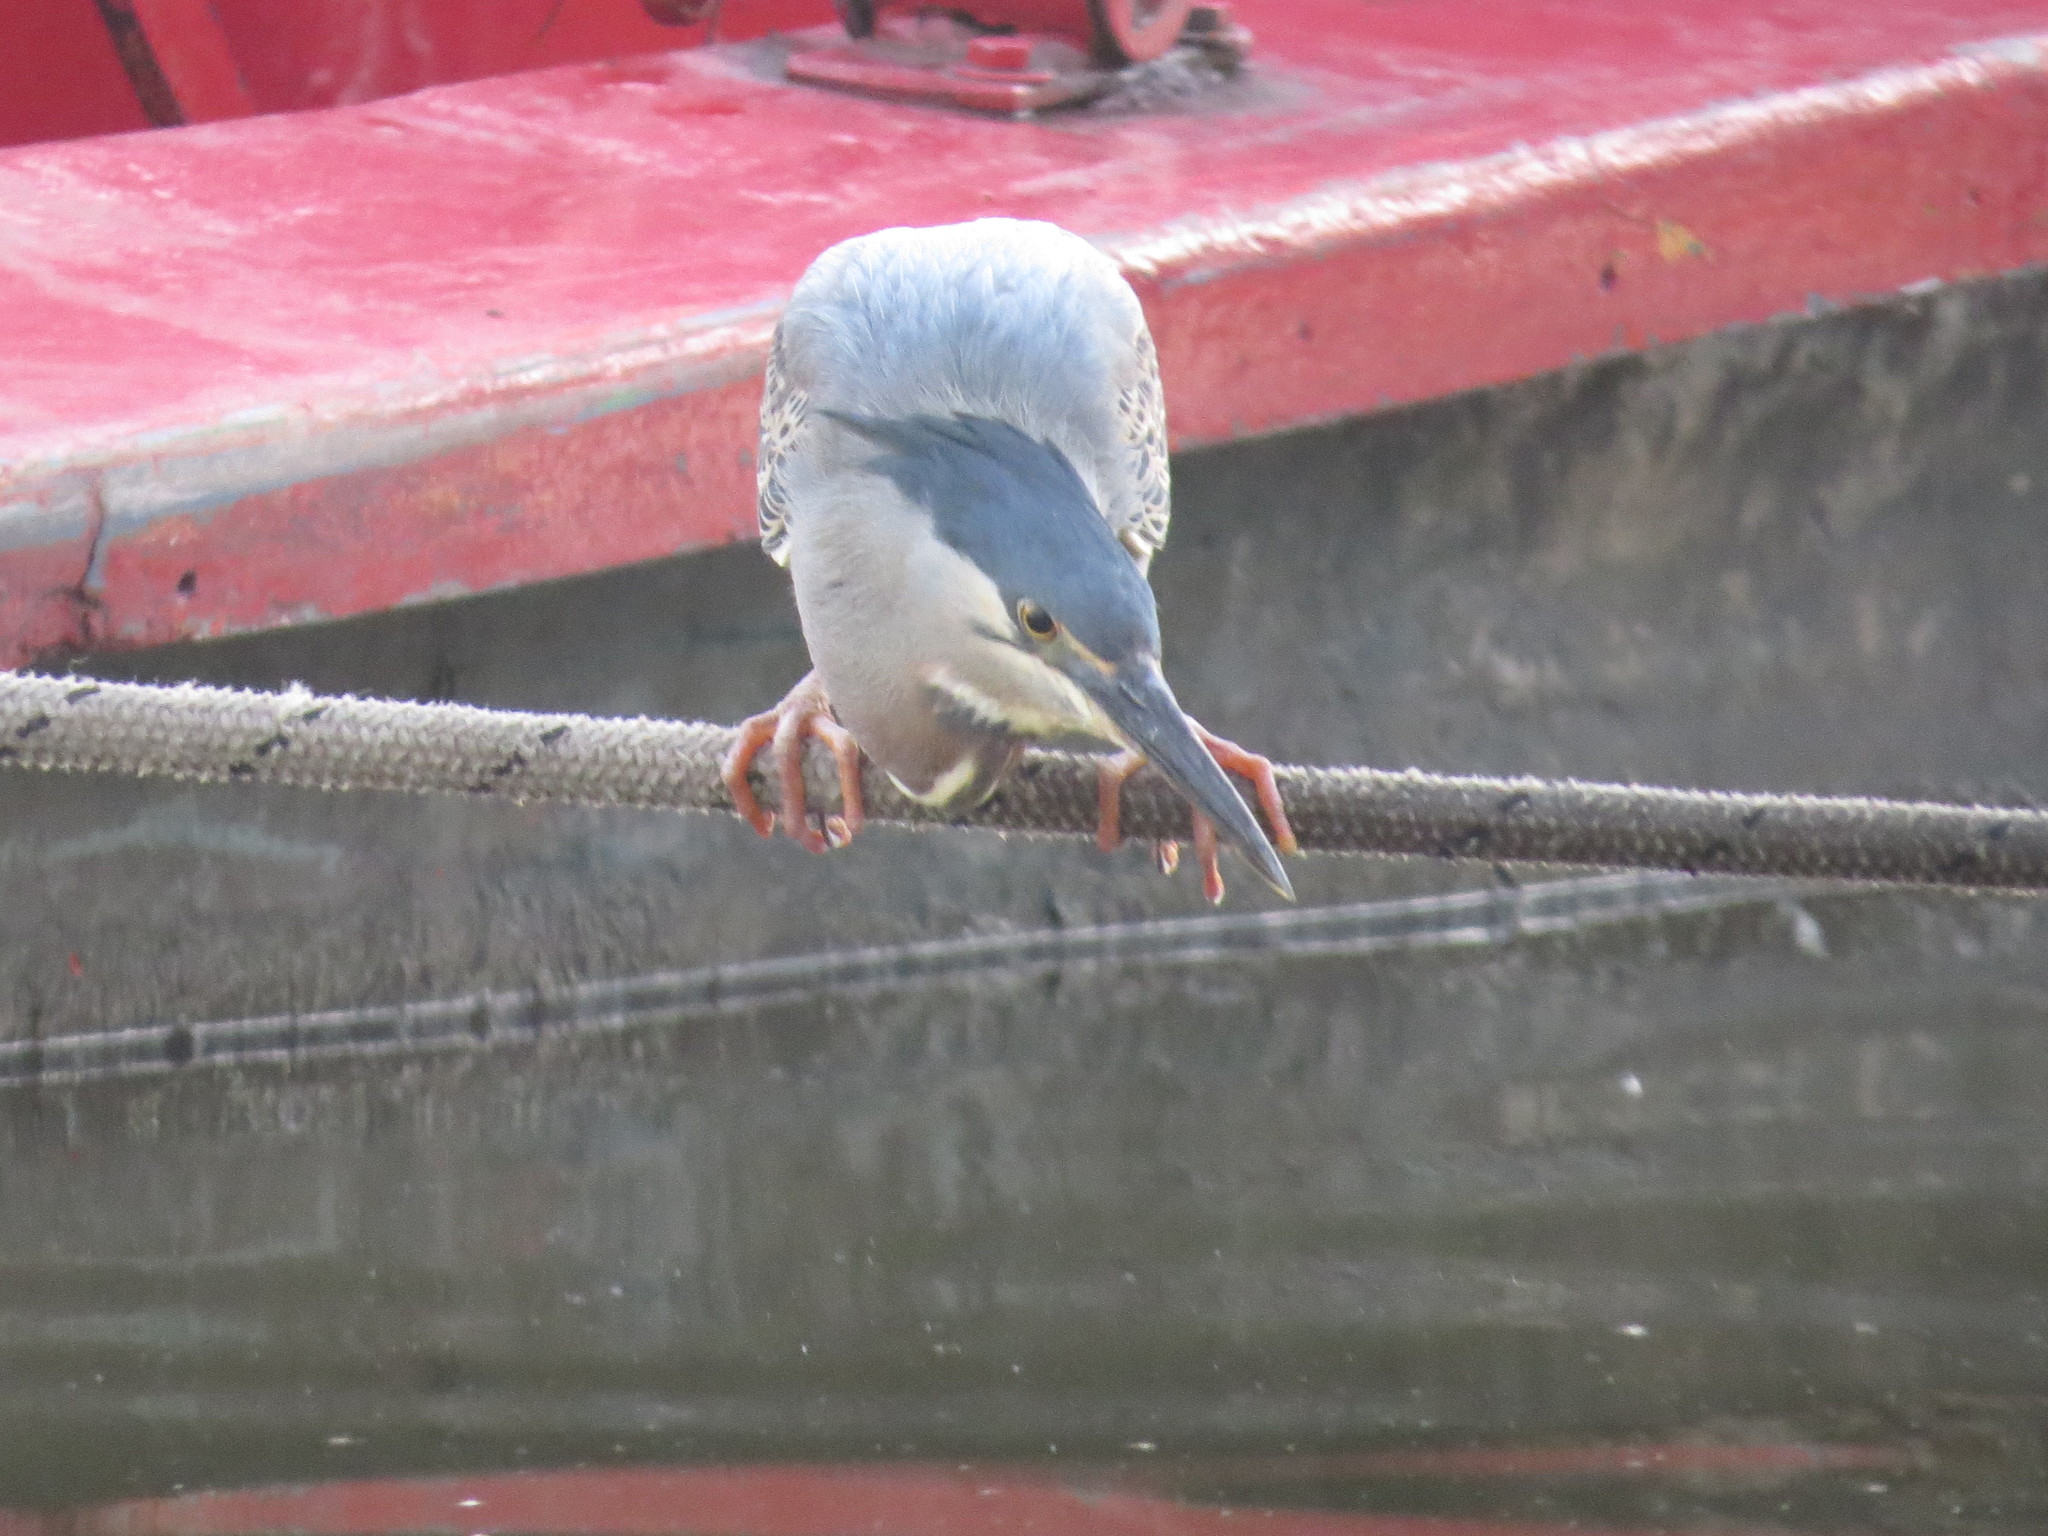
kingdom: Animalia
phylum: Chordata
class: Aves
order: Pelecaniformes
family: Ardeidae
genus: Butorides
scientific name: Butorides striata
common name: Striated heron
